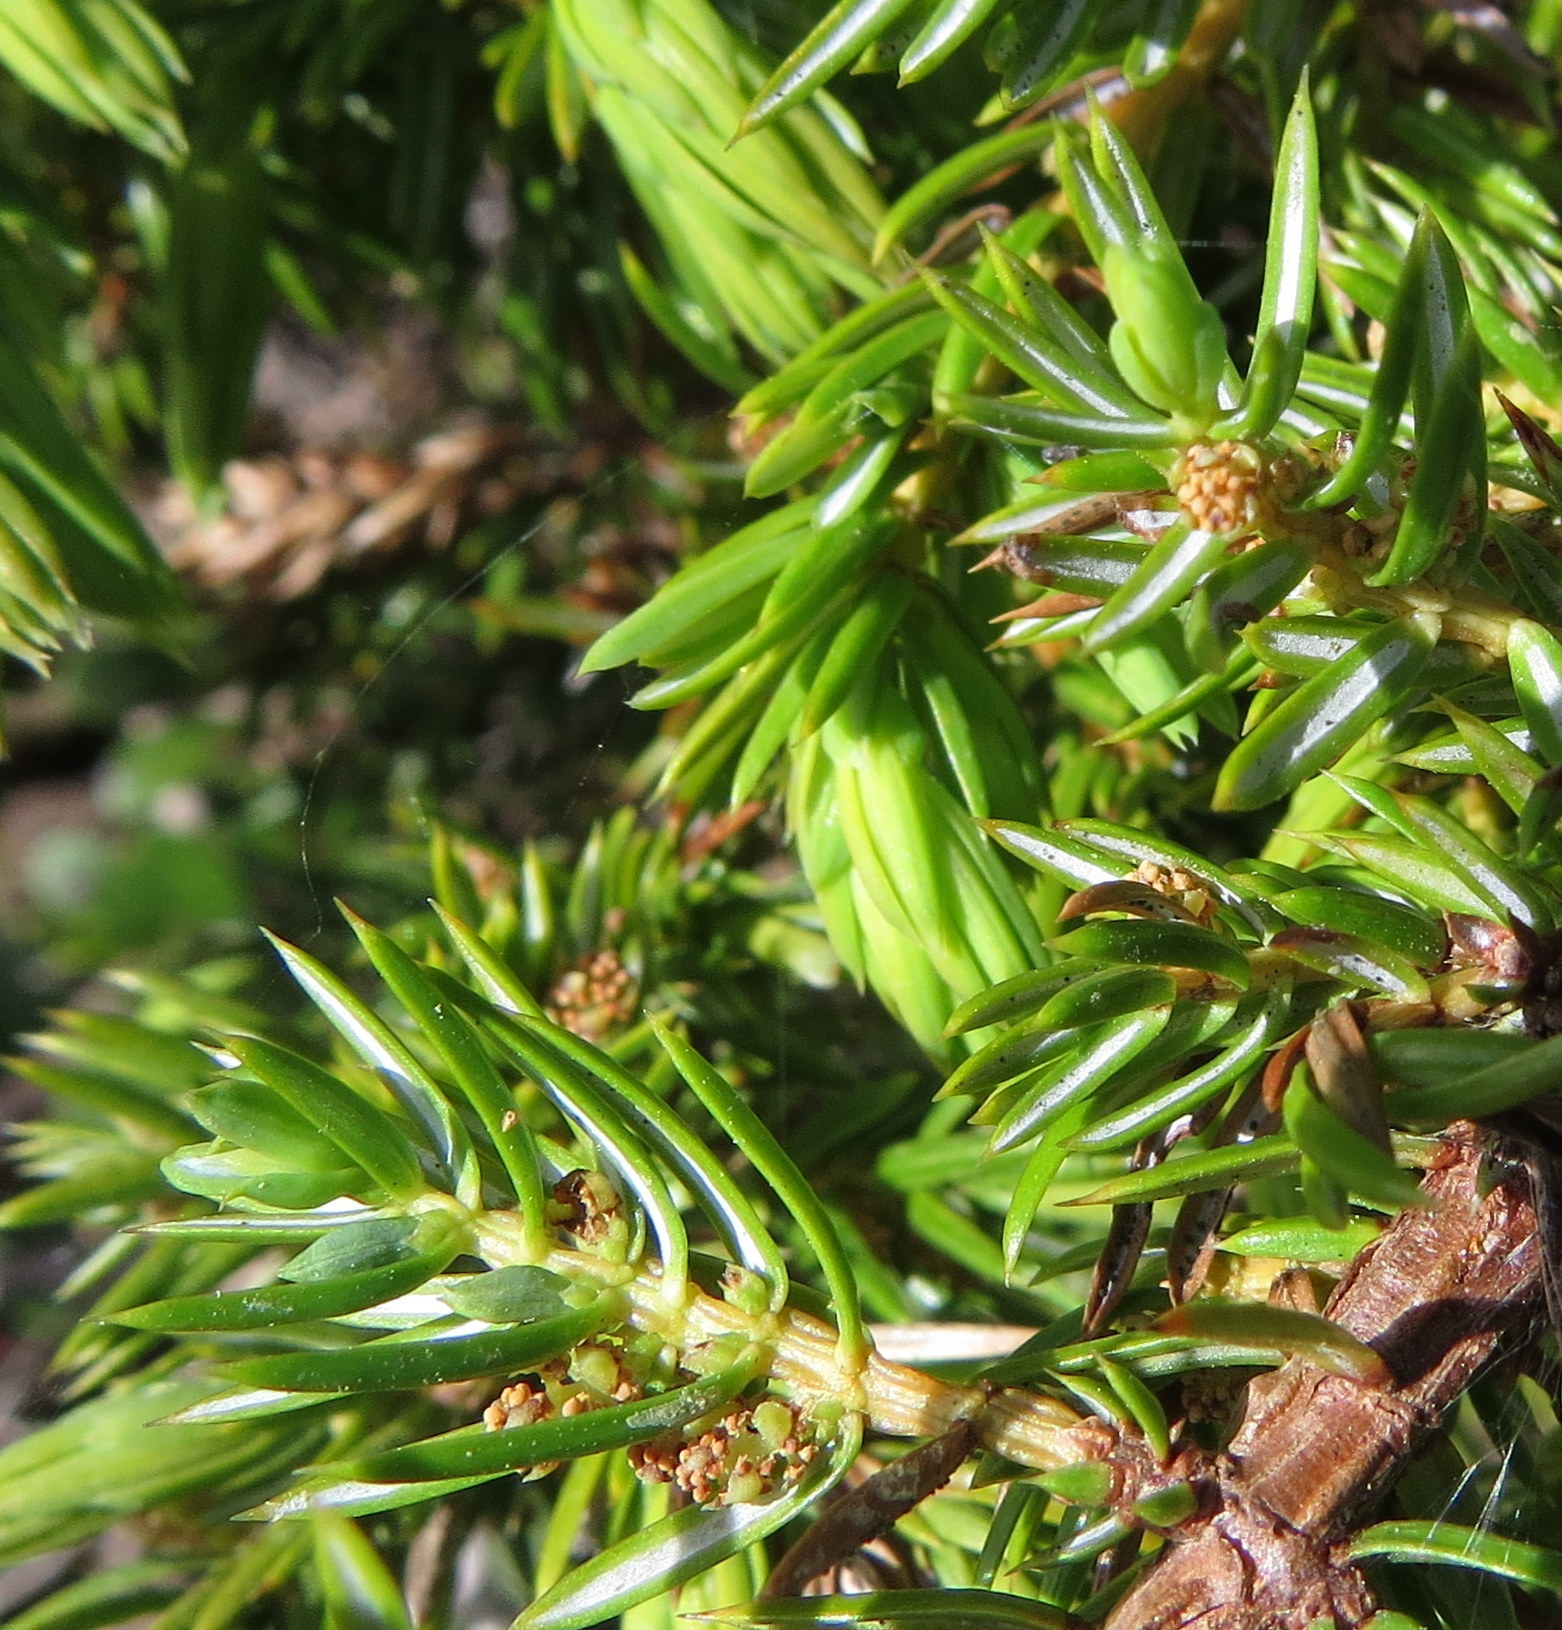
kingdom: Plantae
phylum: Tracheophyta
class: Pinopsida
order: Pinales
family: Cupressaceae
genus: Juniperus
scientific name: Juniperus communis
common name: Common juniper
